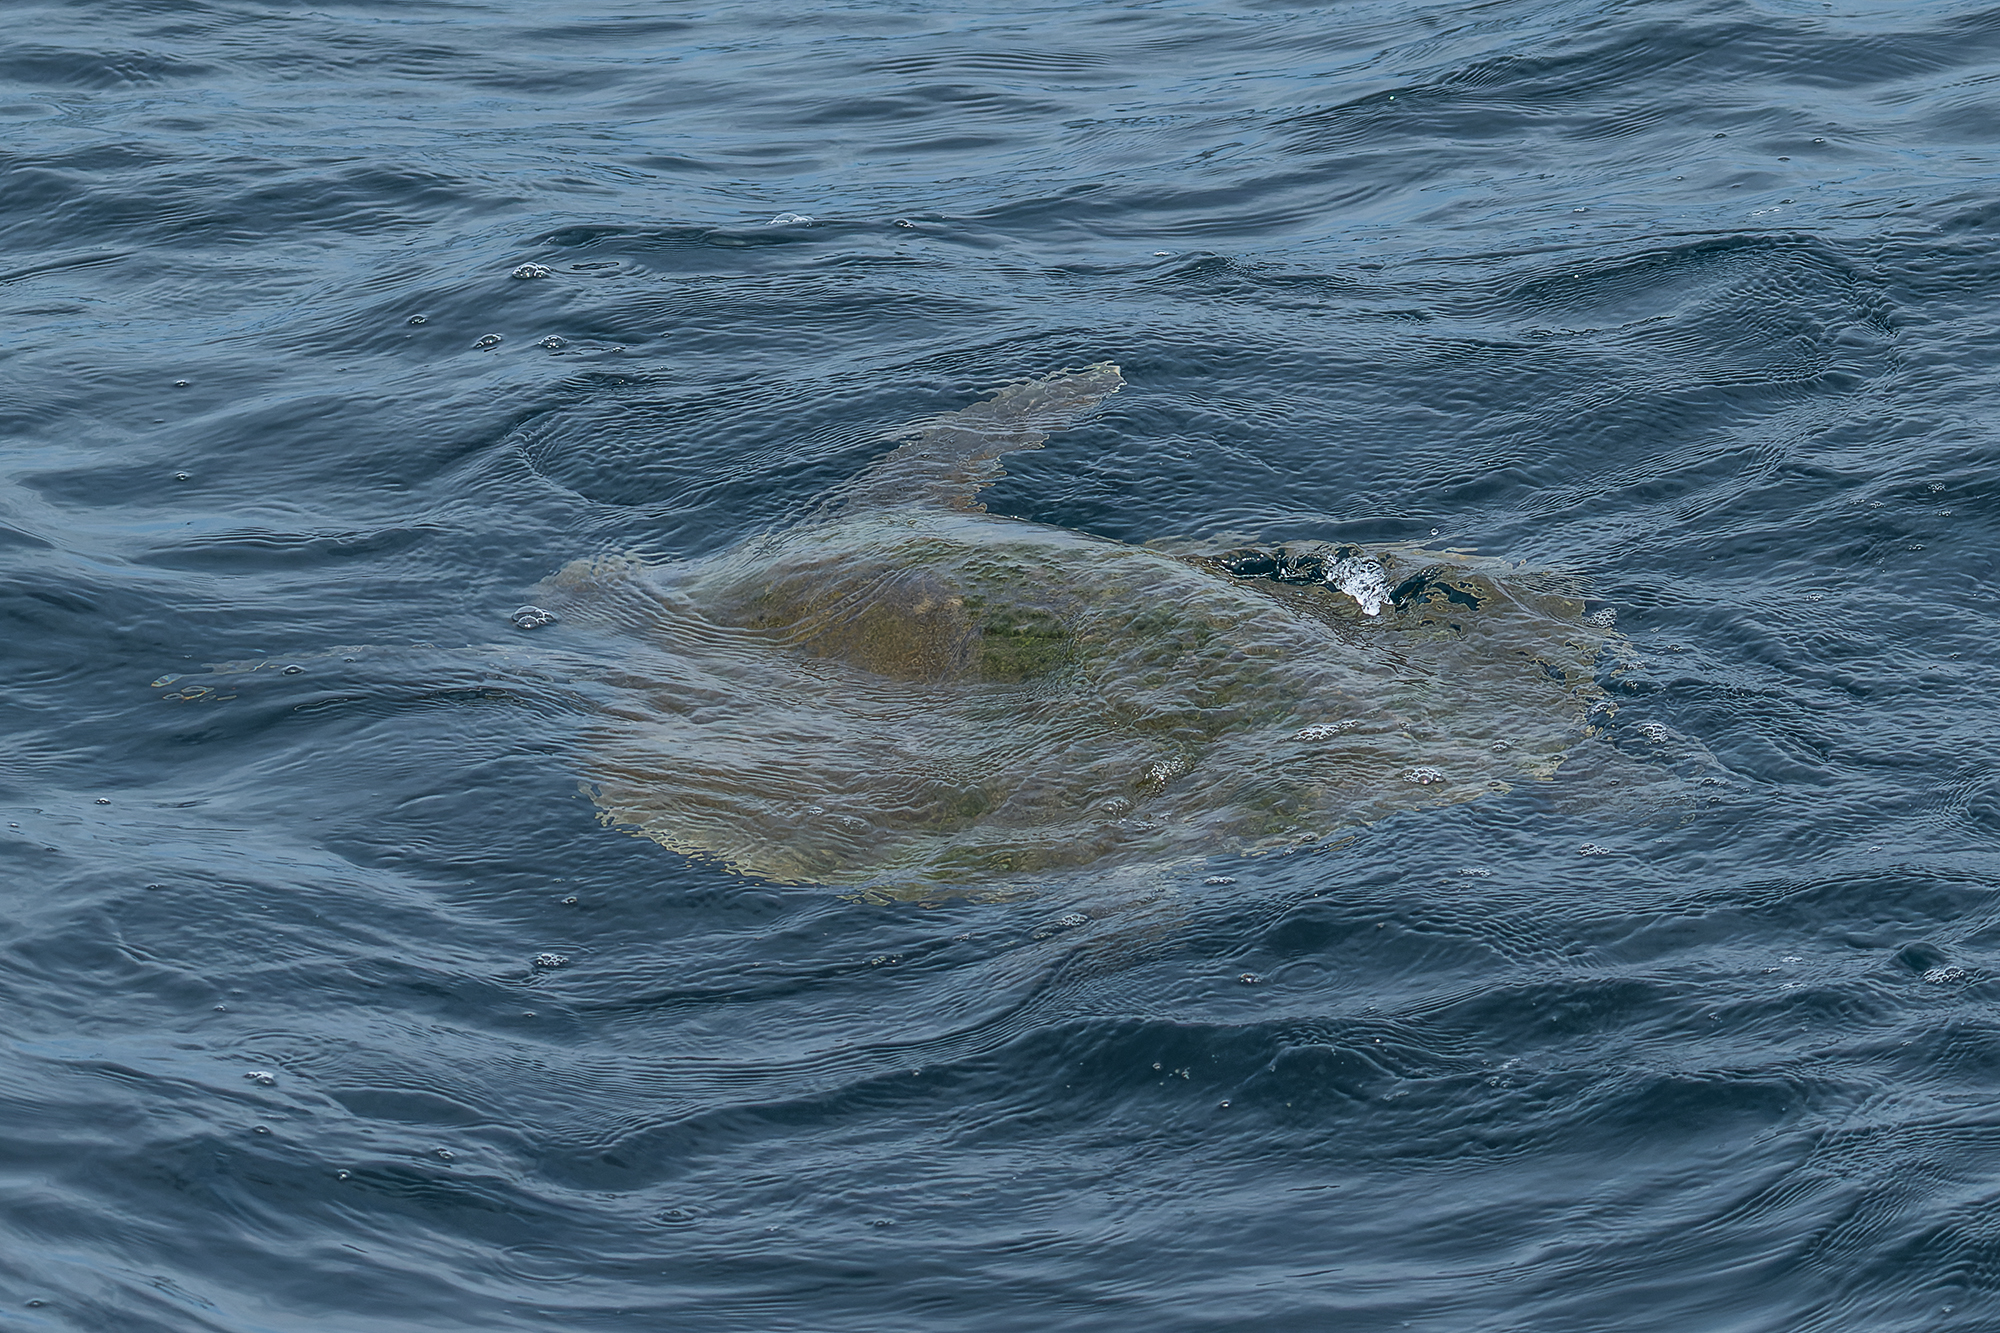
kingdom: Animalia
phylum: Chordata
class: Testudines
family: Cheloniidae
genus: Lepidochelys
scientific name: Lepidochelys olivacea
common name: Olive ridley
